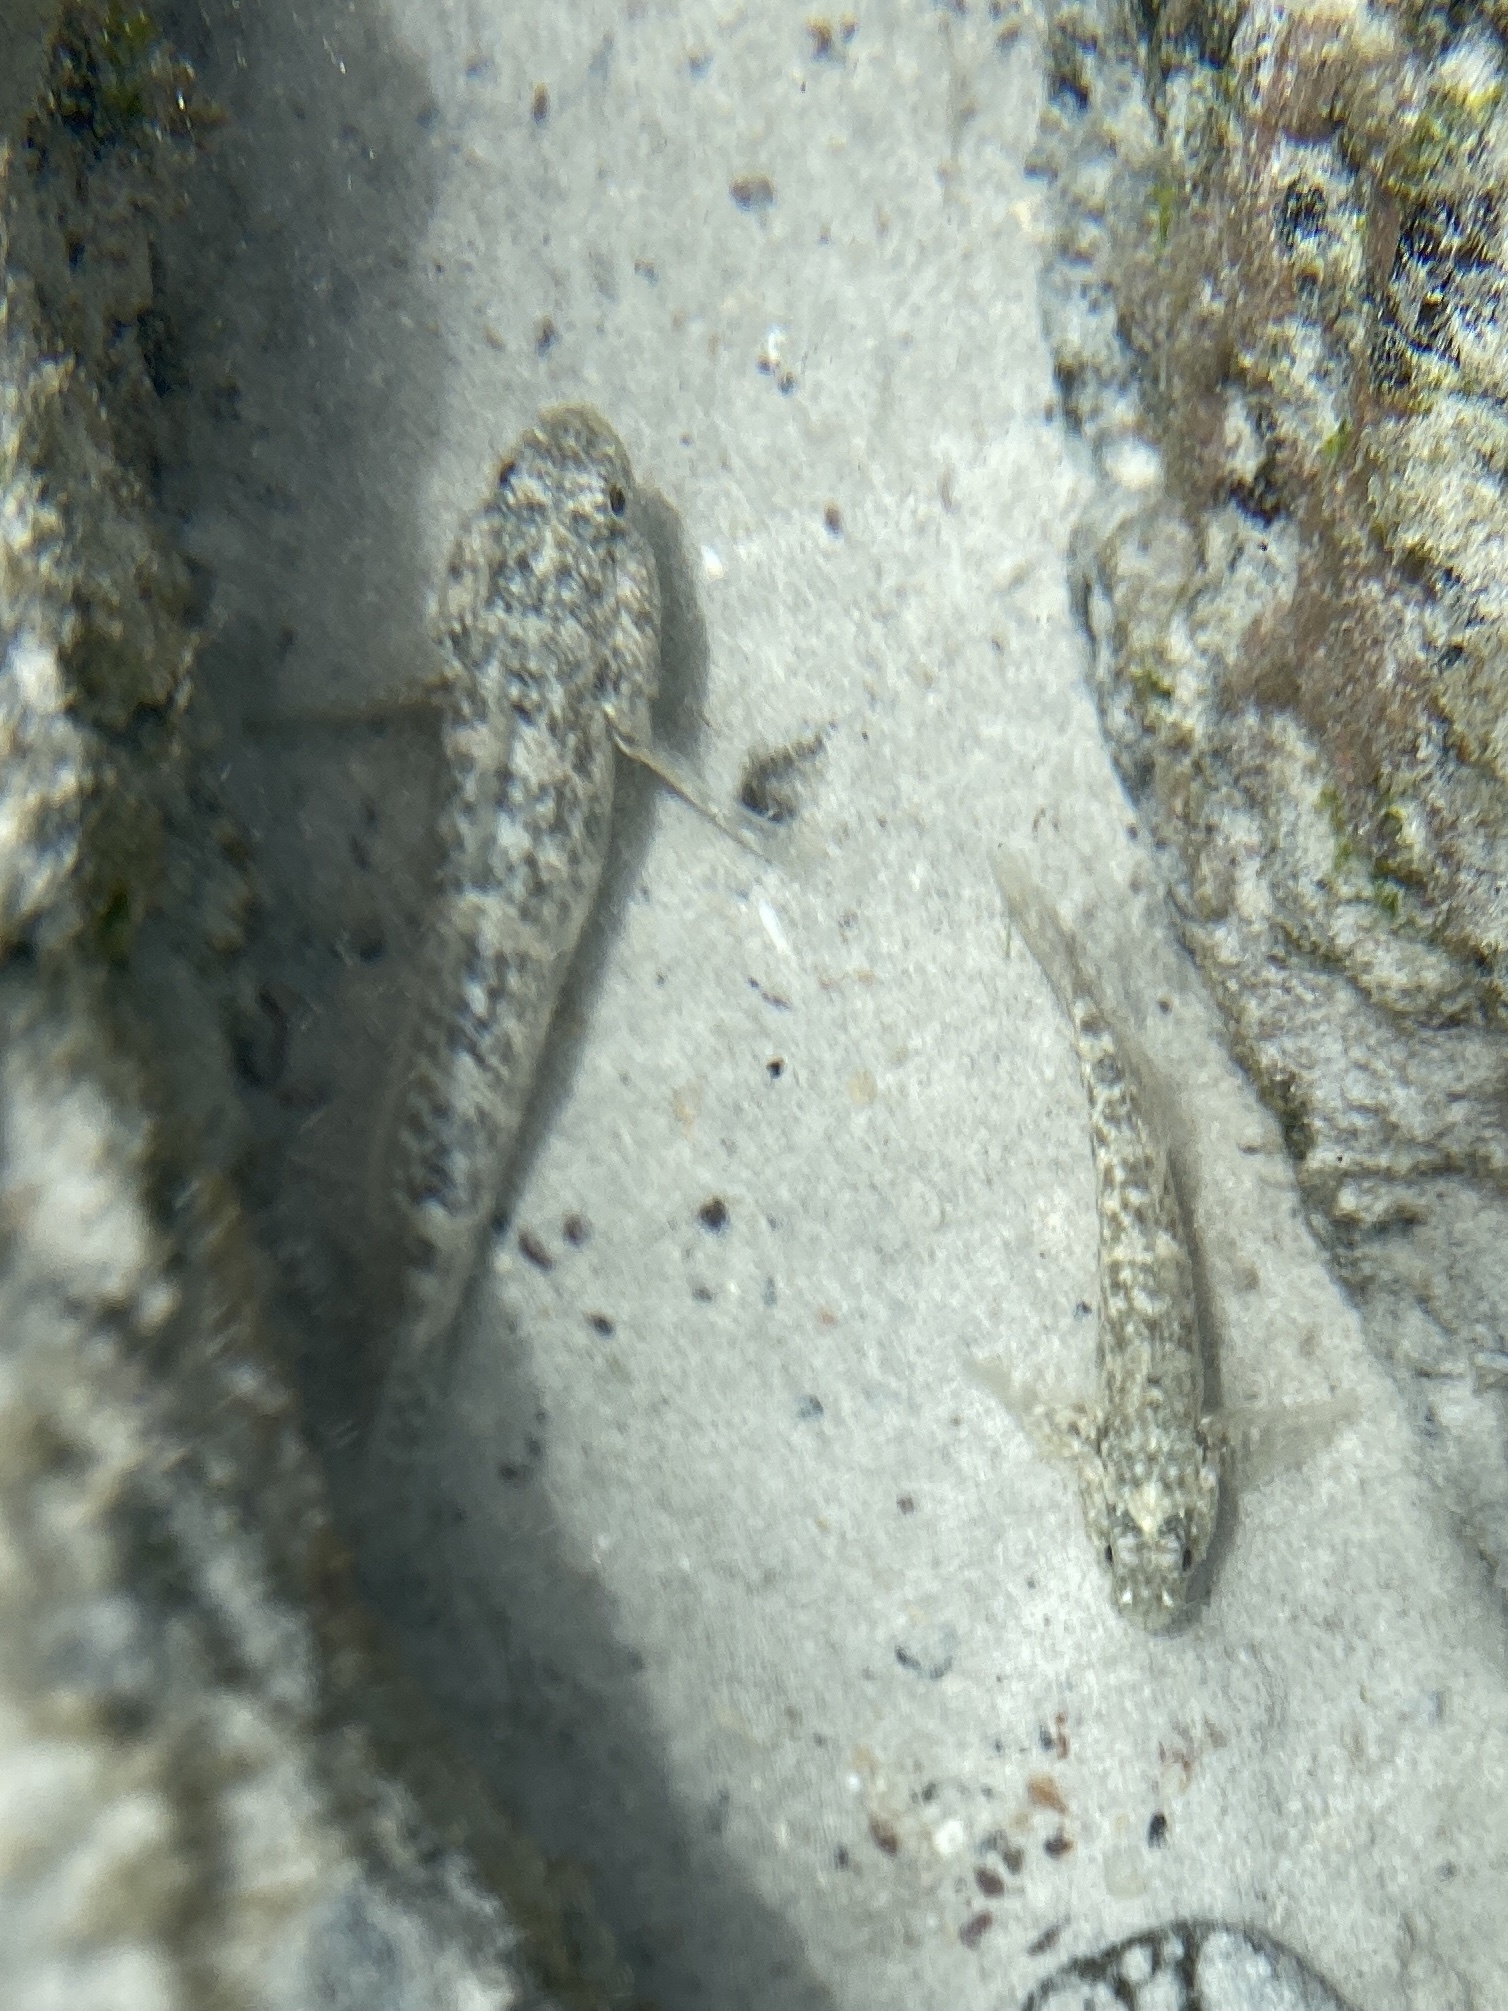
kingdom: Animalia
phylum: Chordata
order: Perciformes
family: Gobiidae
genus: Bathygobius
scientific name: Bathygobius lineatus
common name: Southern frillfin
